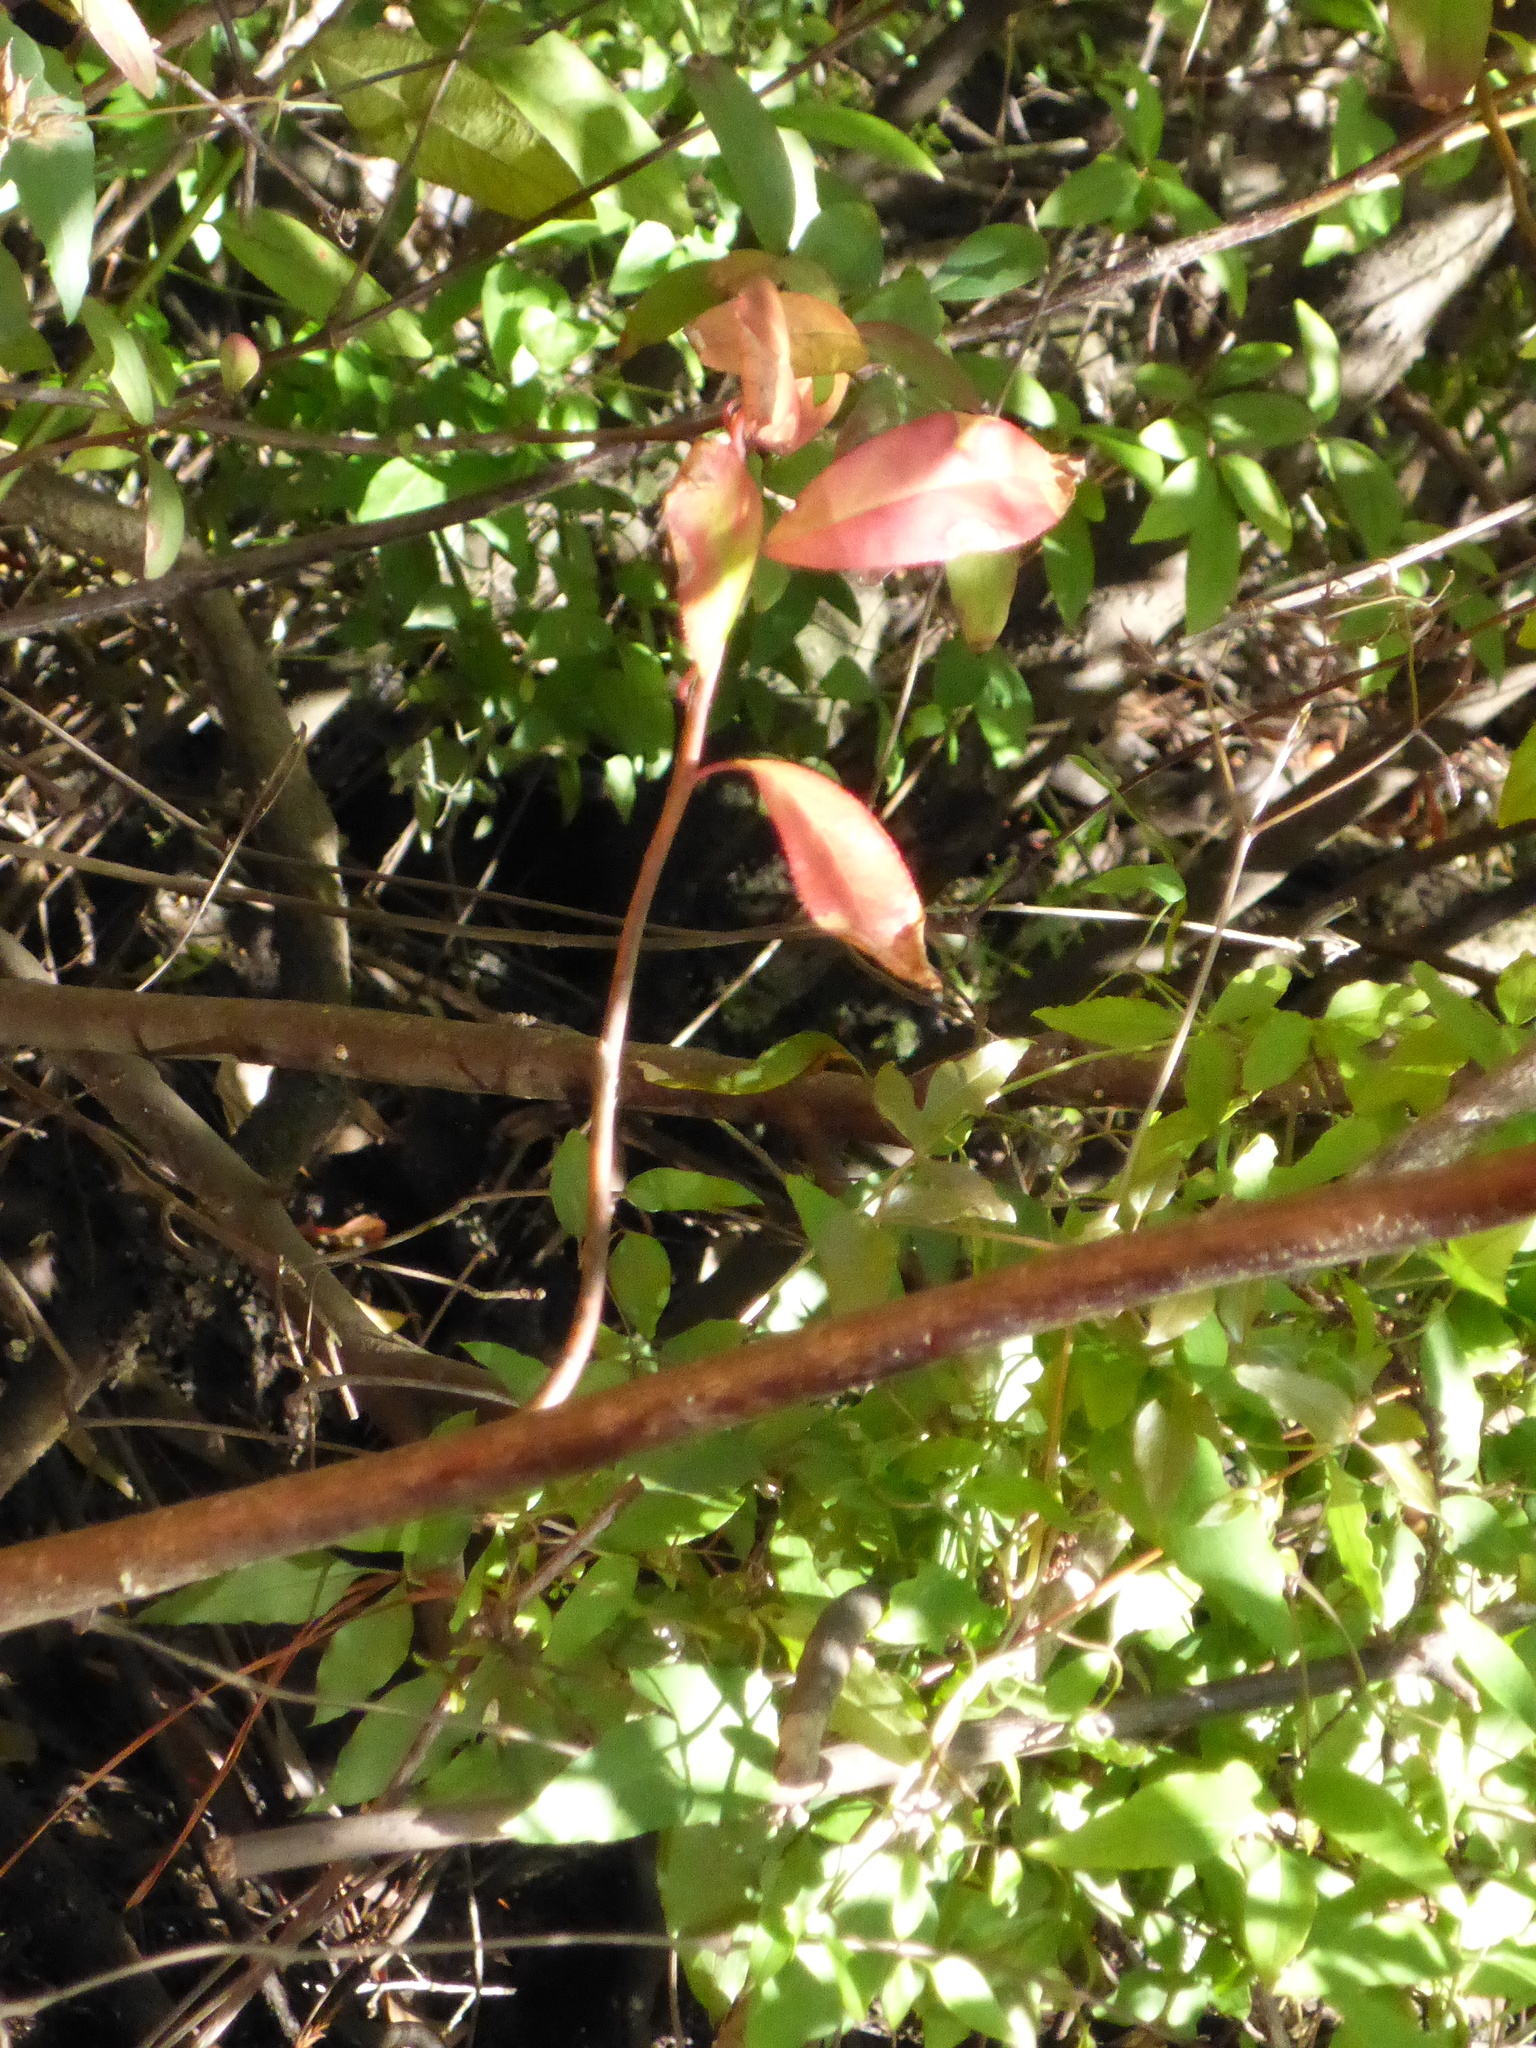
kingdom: Plantae
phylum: Tracheophyta
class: Magnoliopsida
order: Saxifragales
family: Iteaceae
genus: Itea
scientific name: Itea virginica
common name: Sweetspire
